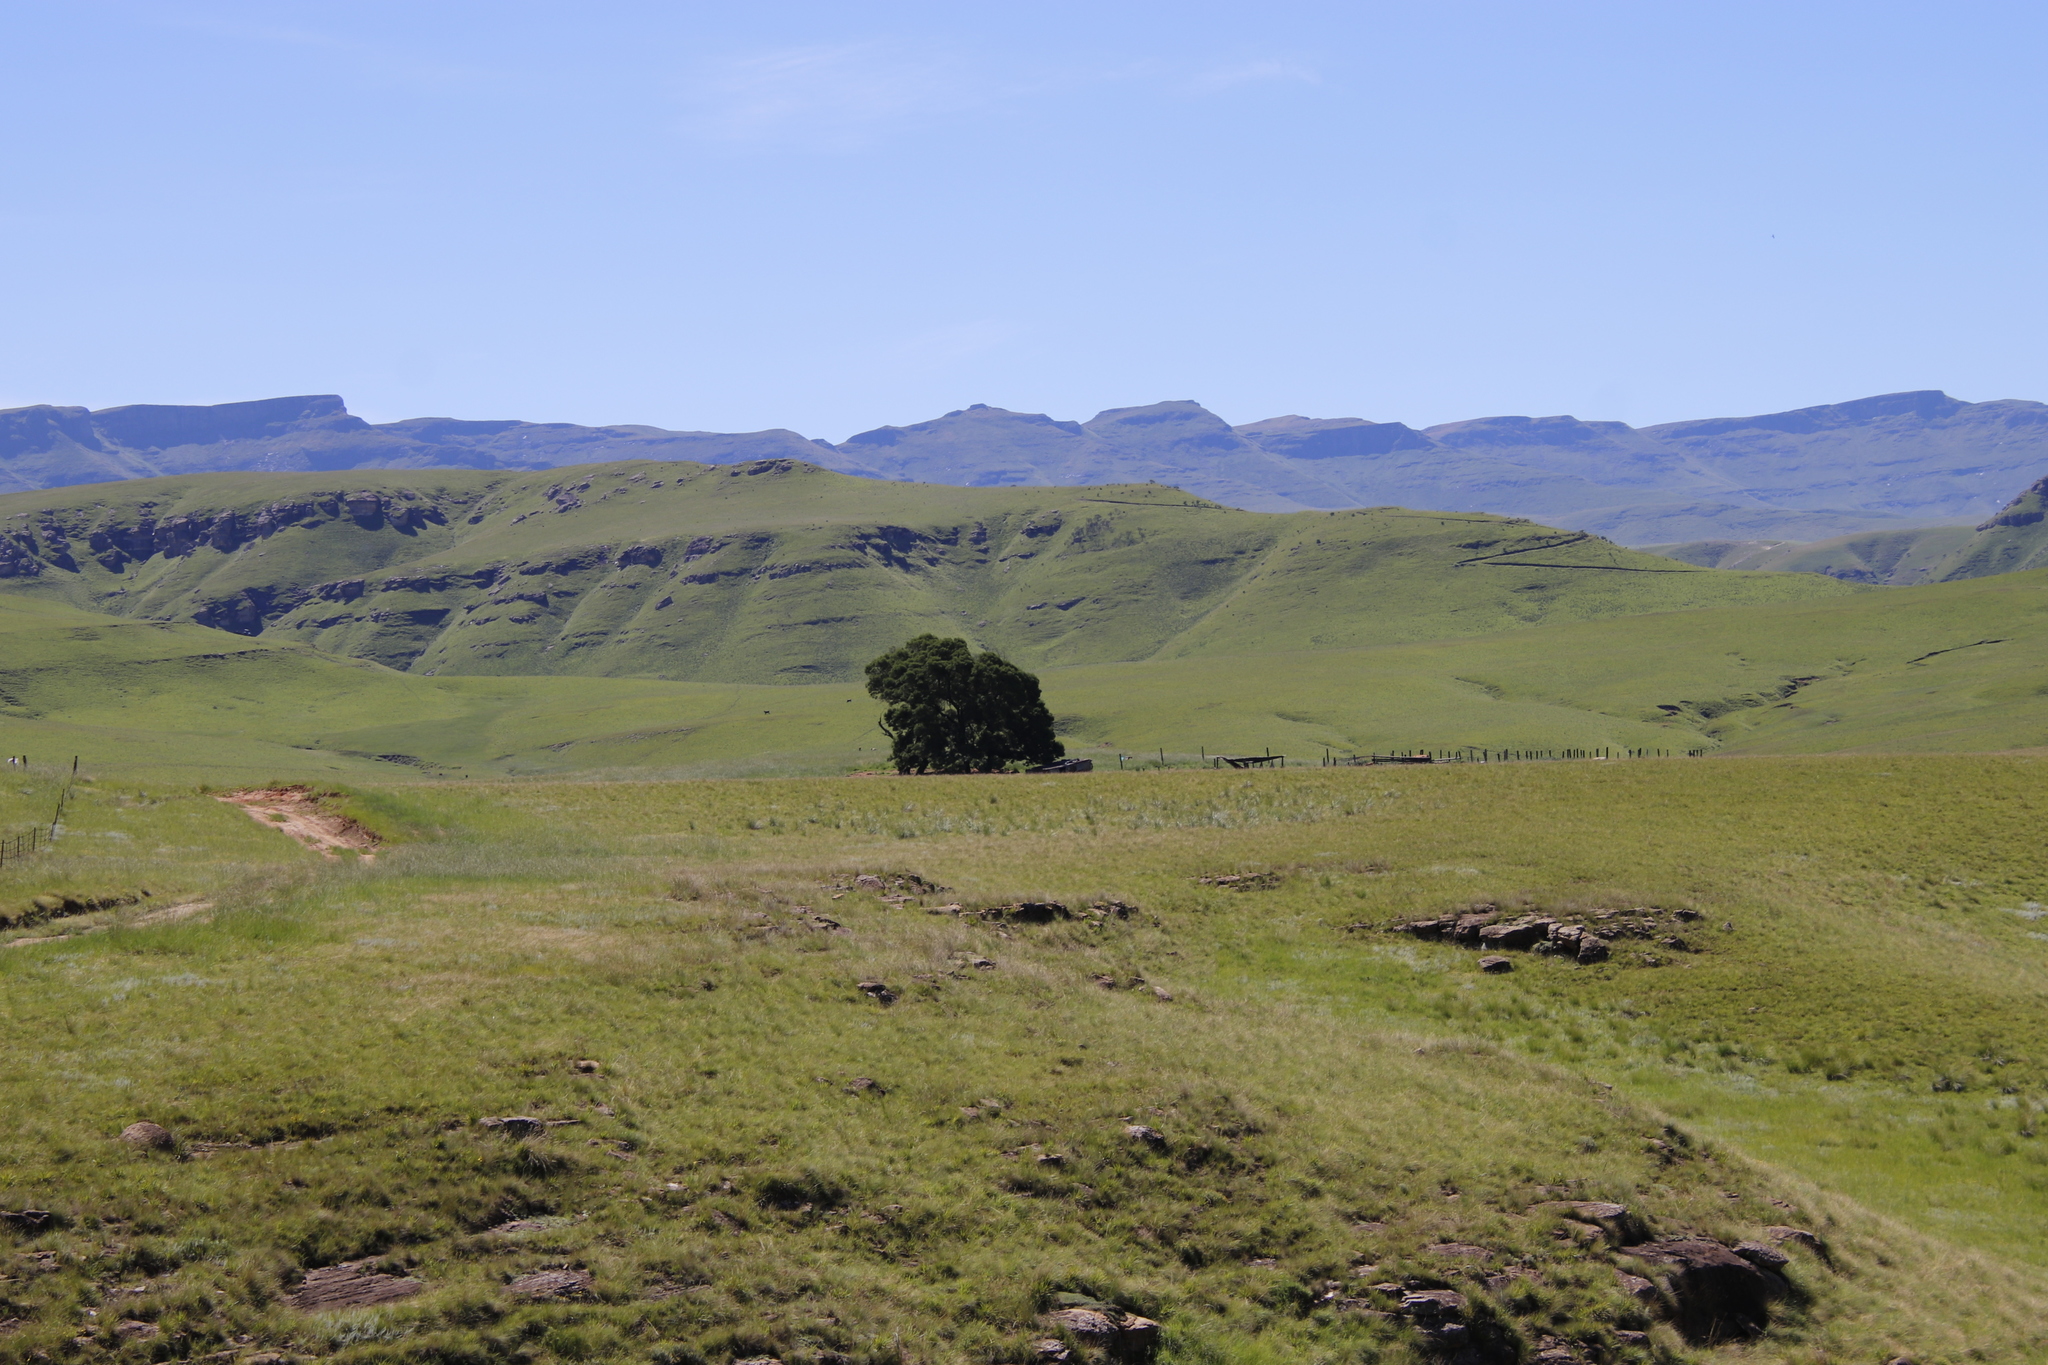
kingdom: Plantae
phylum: Tracheophyta
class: Magnoliopsida
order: Fabales
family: Fabaceae
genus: Acacia
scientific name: Acacia mearnsii
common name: Black wattle
